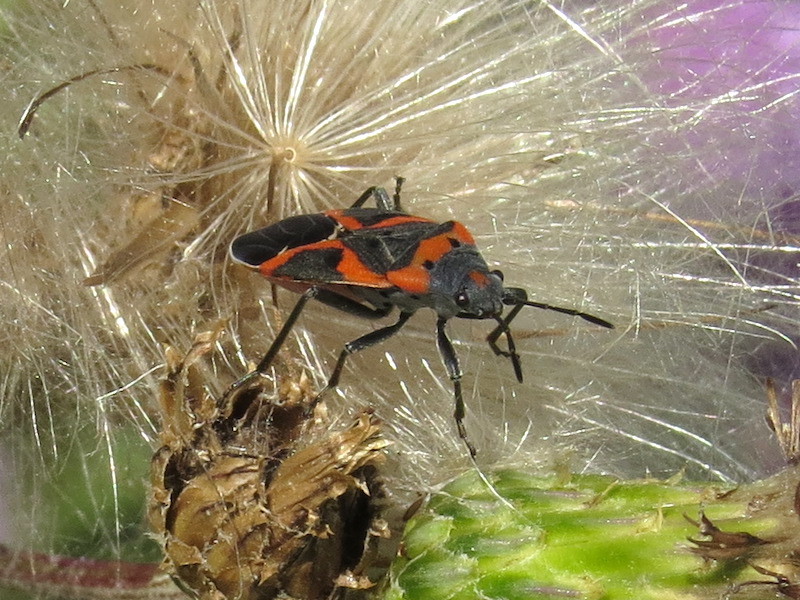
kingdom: Animalia
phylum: Arthropoda
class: Insecta
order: Hemiptera
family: Lygaeidae
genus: Lygaeus
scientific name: Lygaeus kalmii
